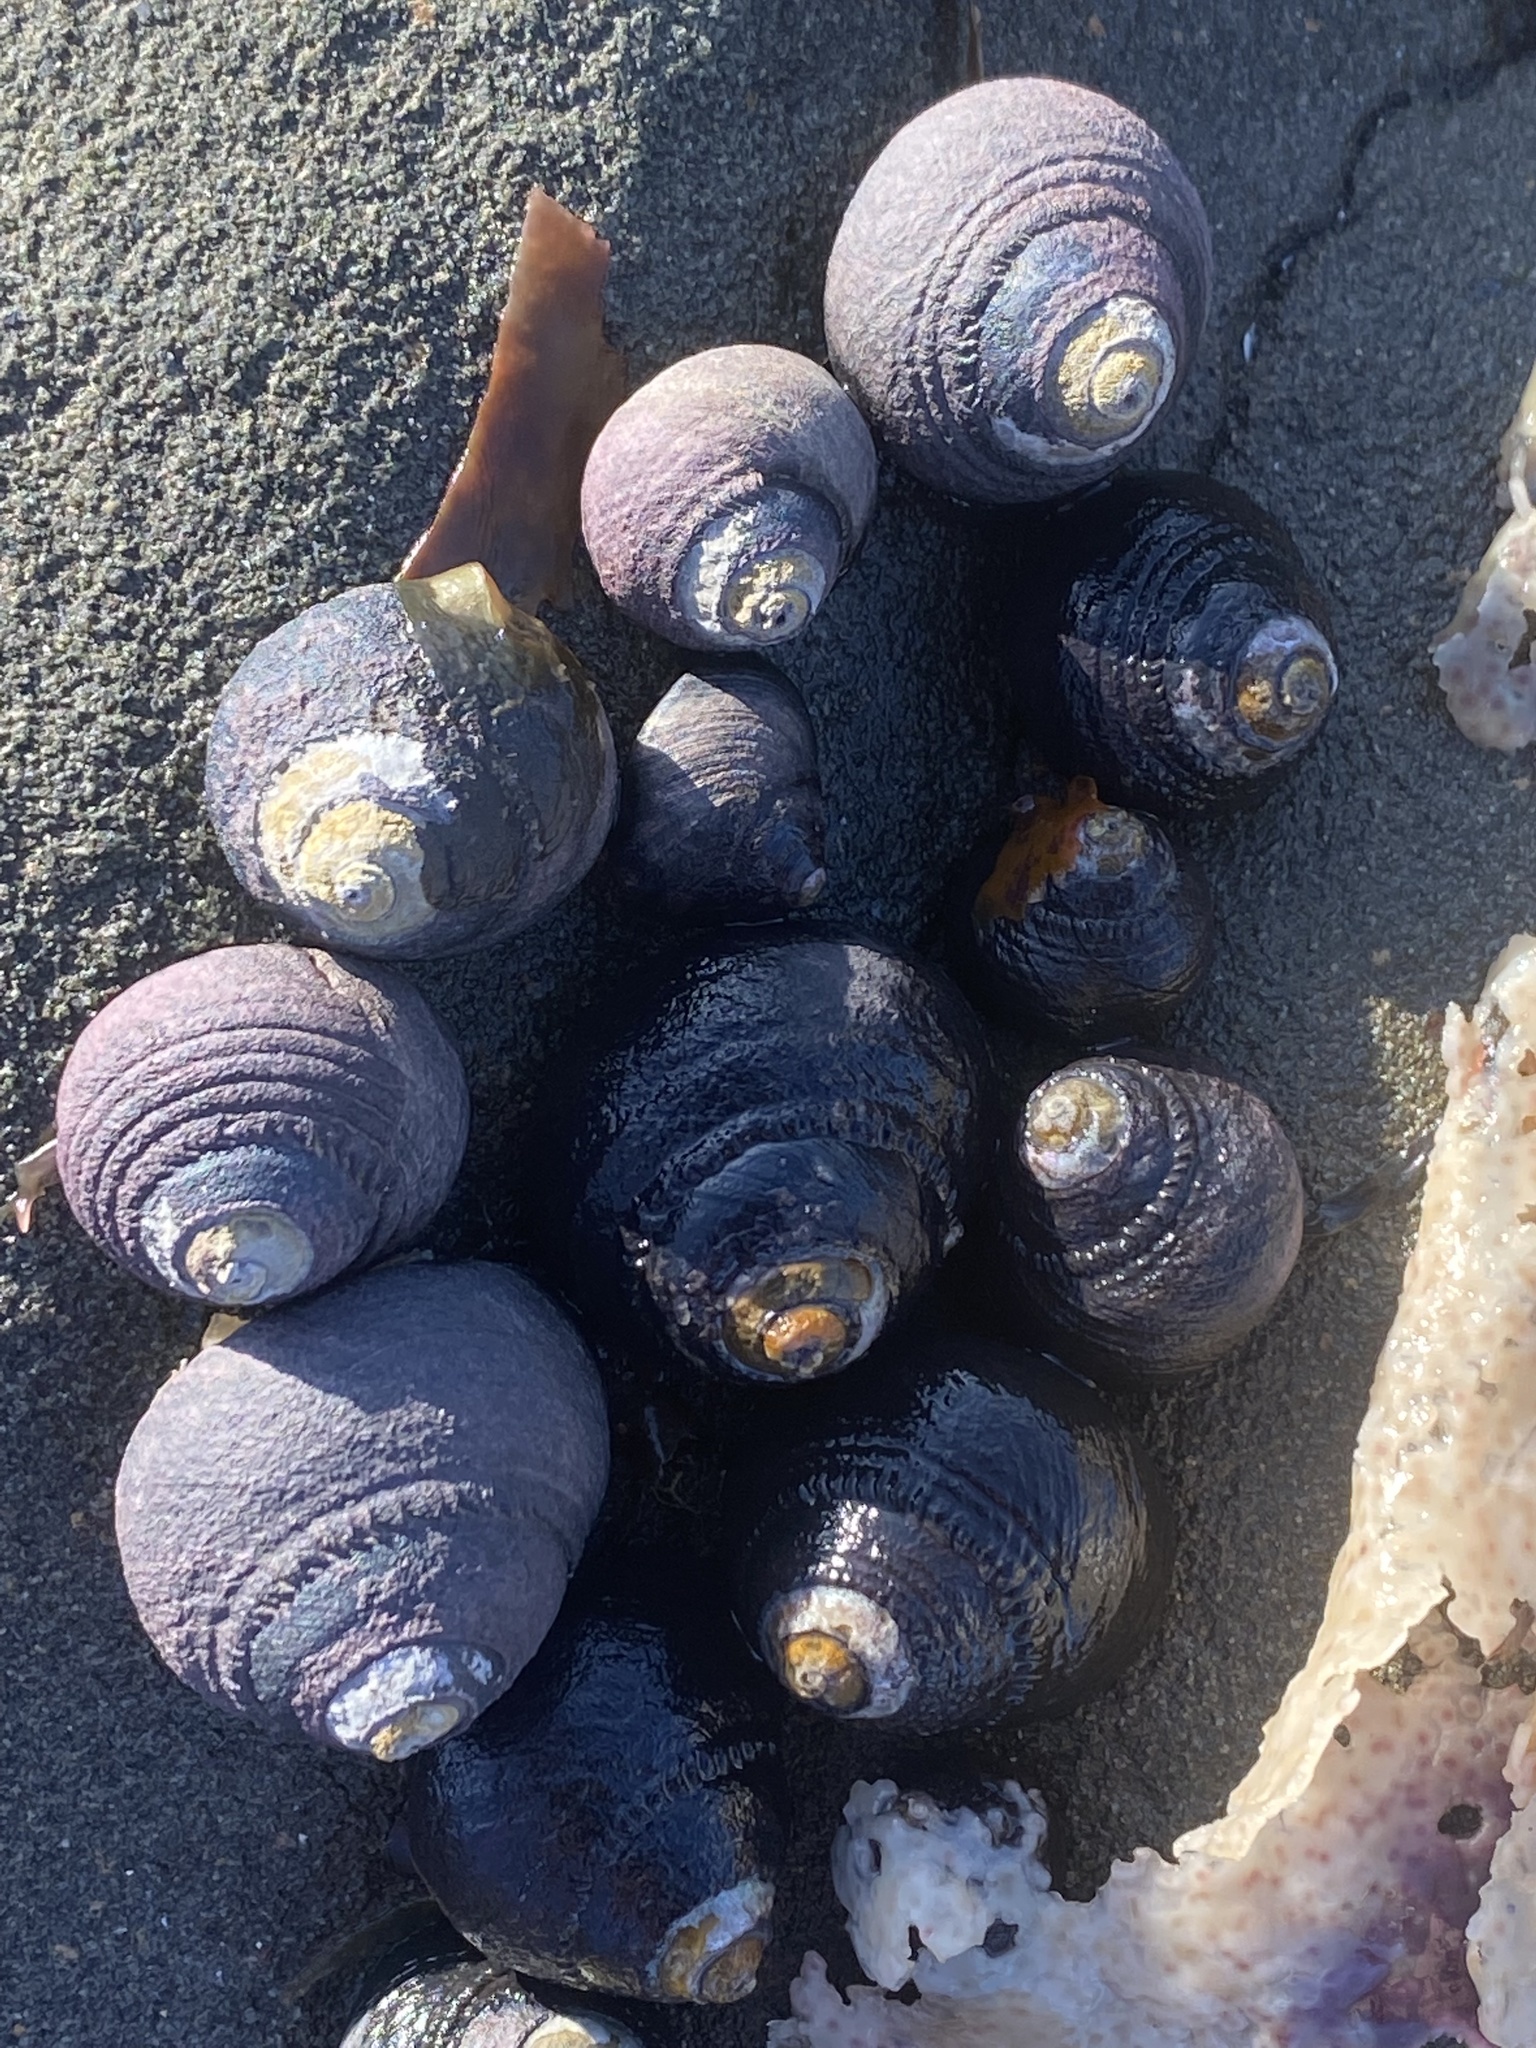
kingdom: Animalia
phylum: Mollusca
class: Gastropoda
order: Trochida
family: Tegulidae
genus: Tegula
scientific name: Tegula funebralis
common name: Black tegula
